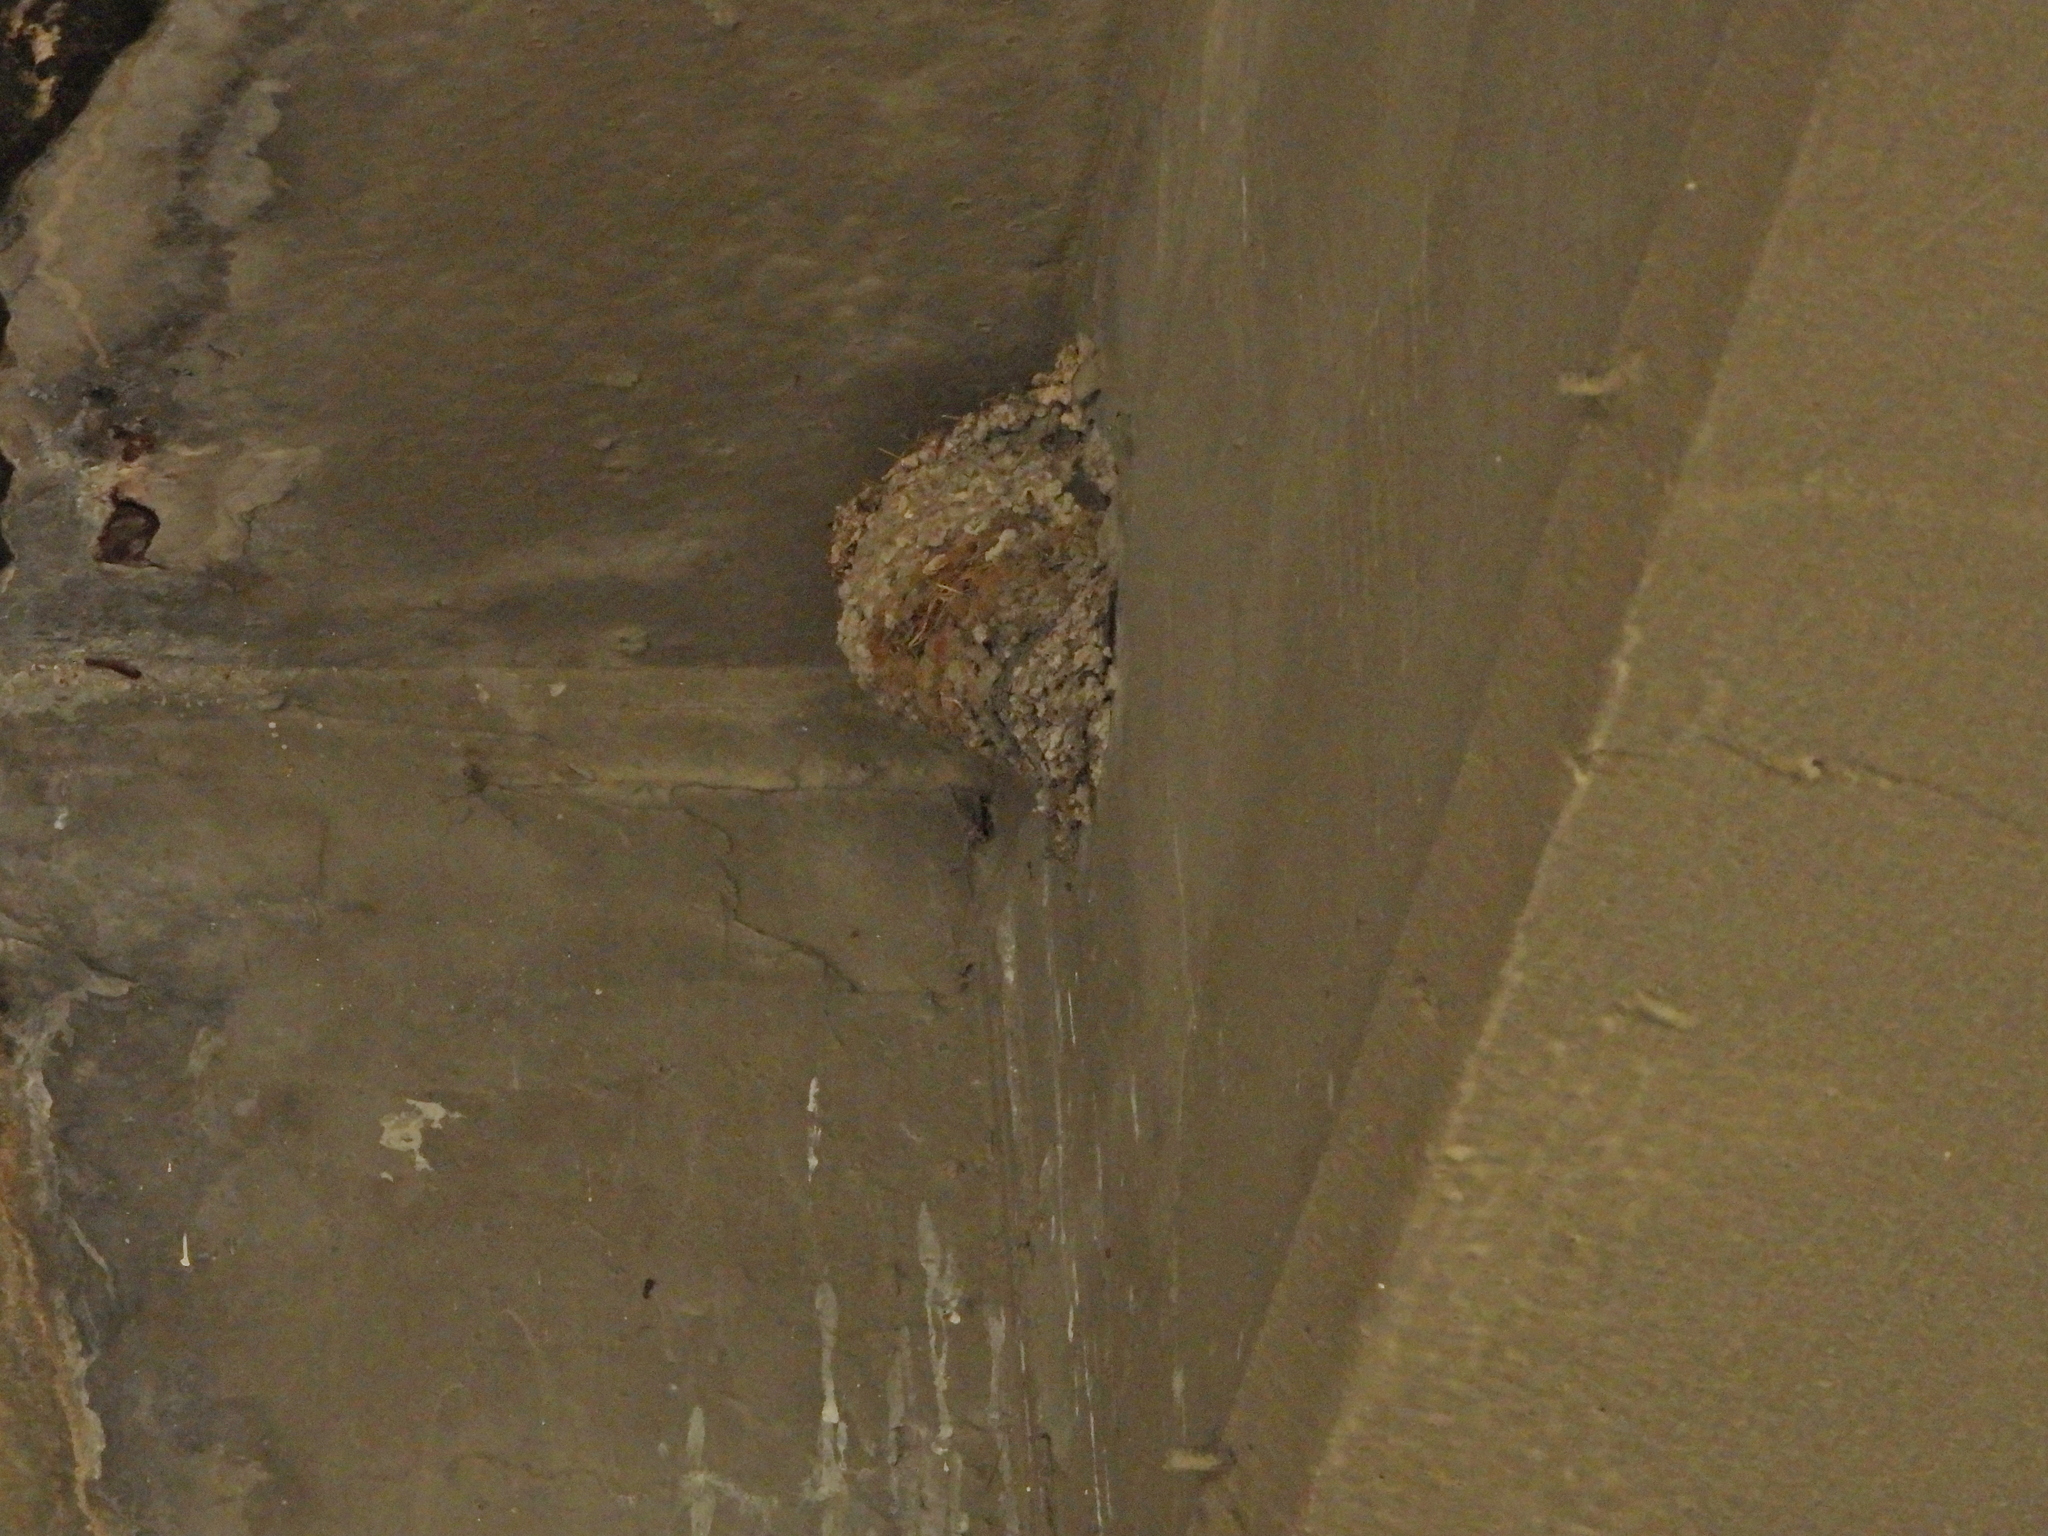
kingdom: Animalia
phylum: Chordata
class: Aves
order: Passeriformes
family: Hirundinidae
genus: Hirundo
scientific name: Hirundo rustica
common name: Barn swallow
